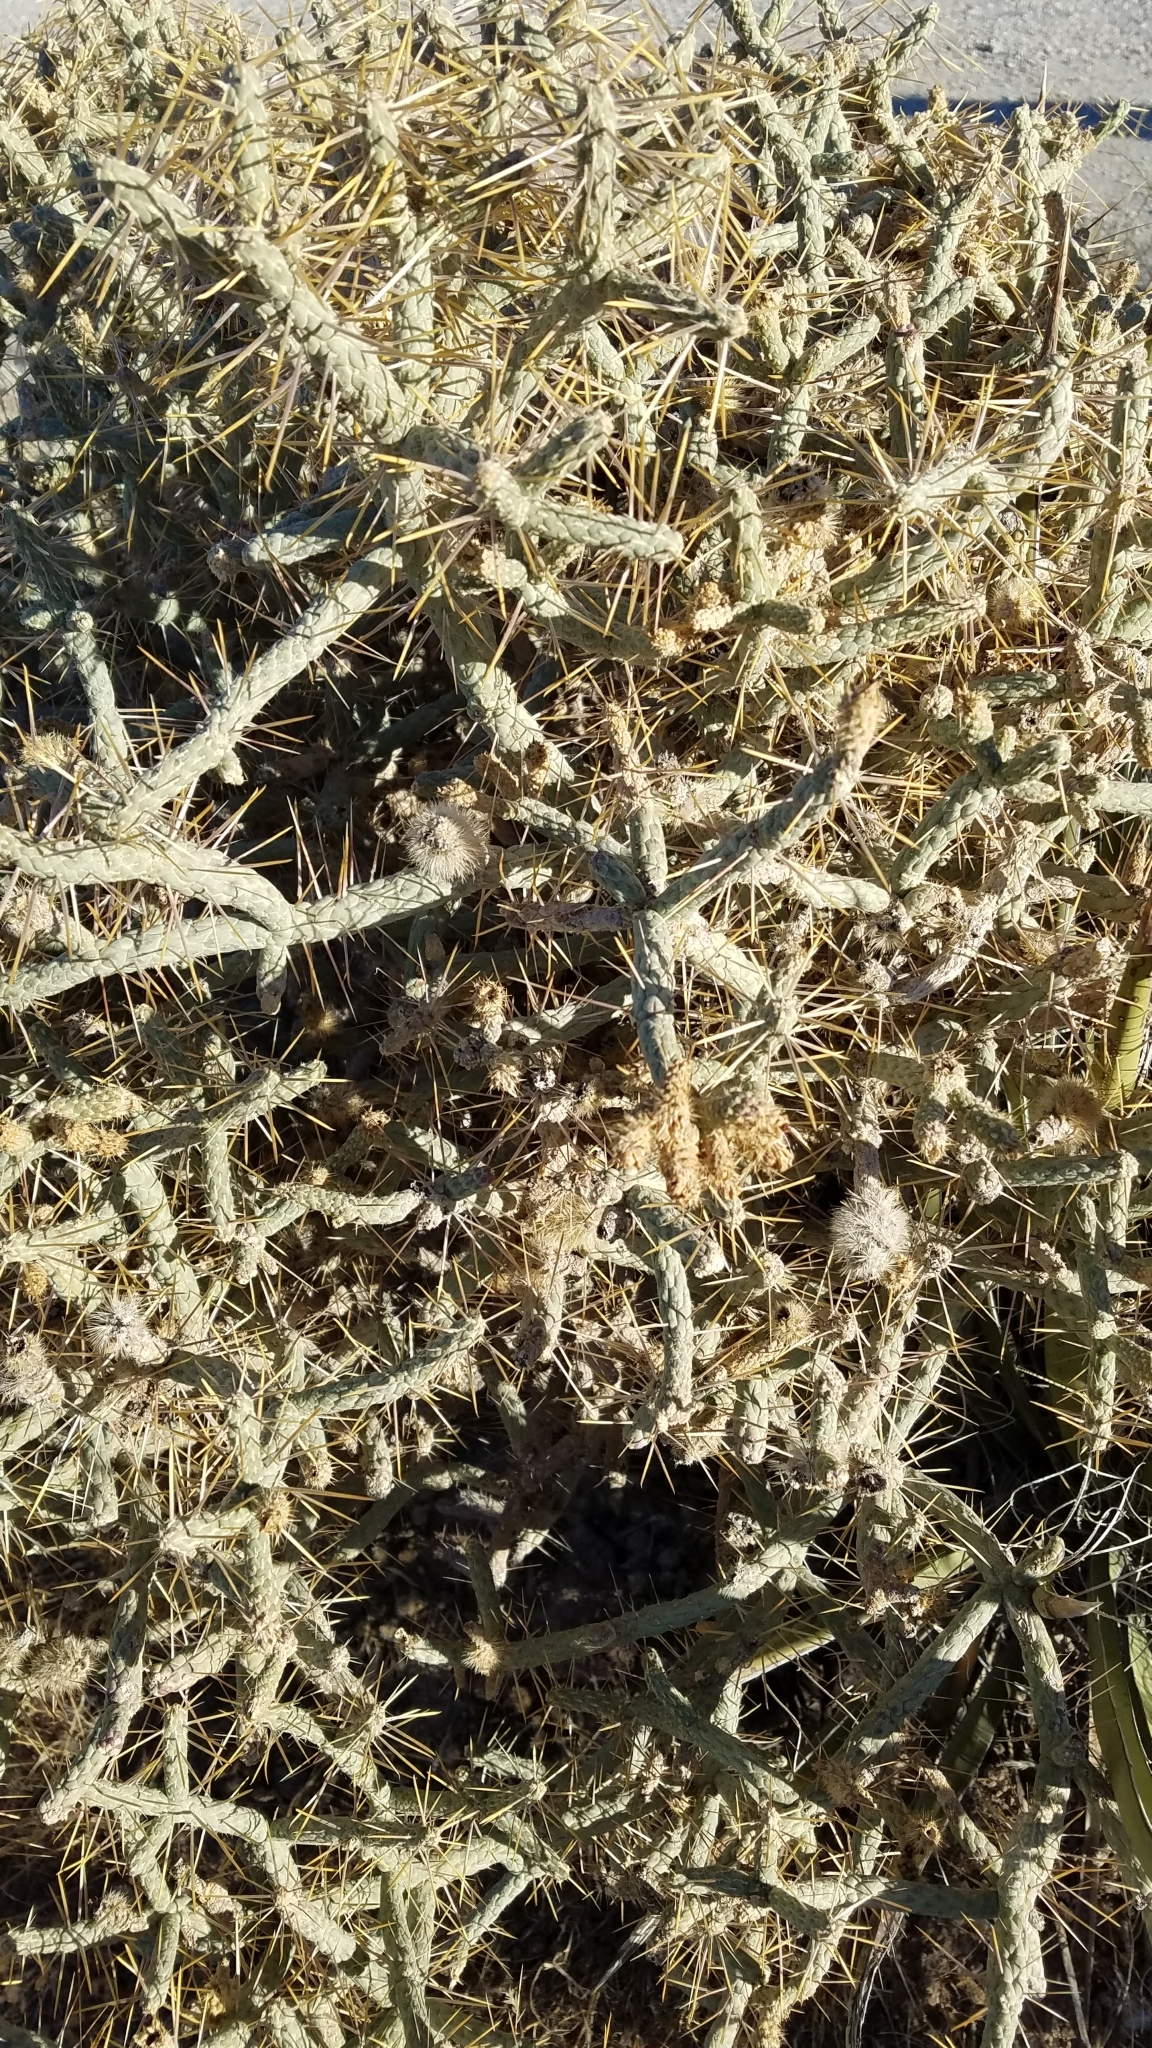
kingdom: Plantae
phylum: Tracheophyta
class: Magnoliopsida
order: Caryophyllales
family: Cactaceae
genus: Cylindropuntia
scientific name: Cylindropuntia ramosissima
